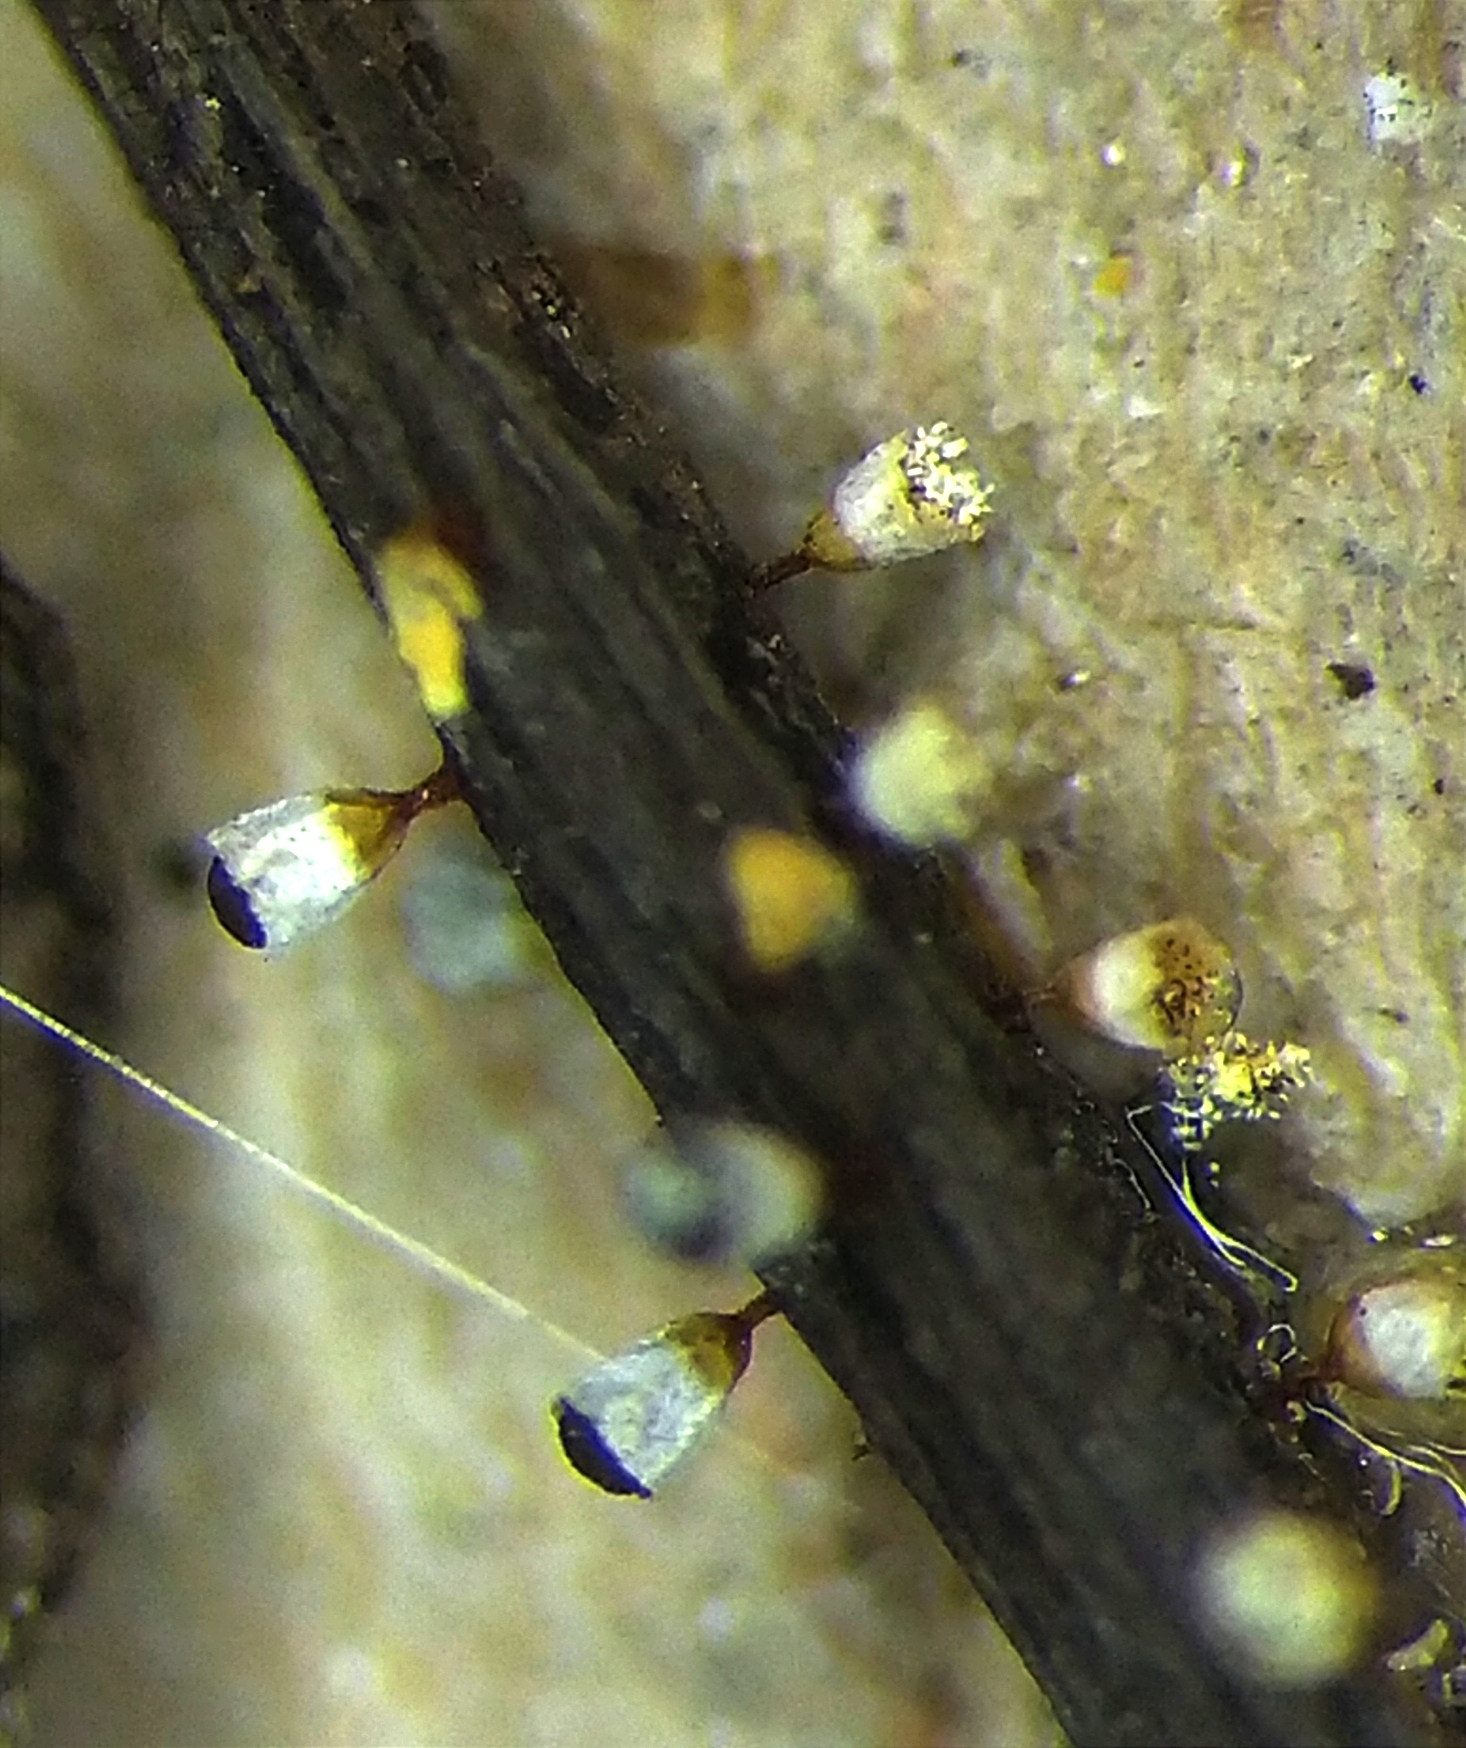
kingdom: Protozoa
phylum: Mycetozoa
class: Myxomycetes
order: Physarales
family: Physaraceae
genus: Craterium
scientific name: Craterium leucocephalum
